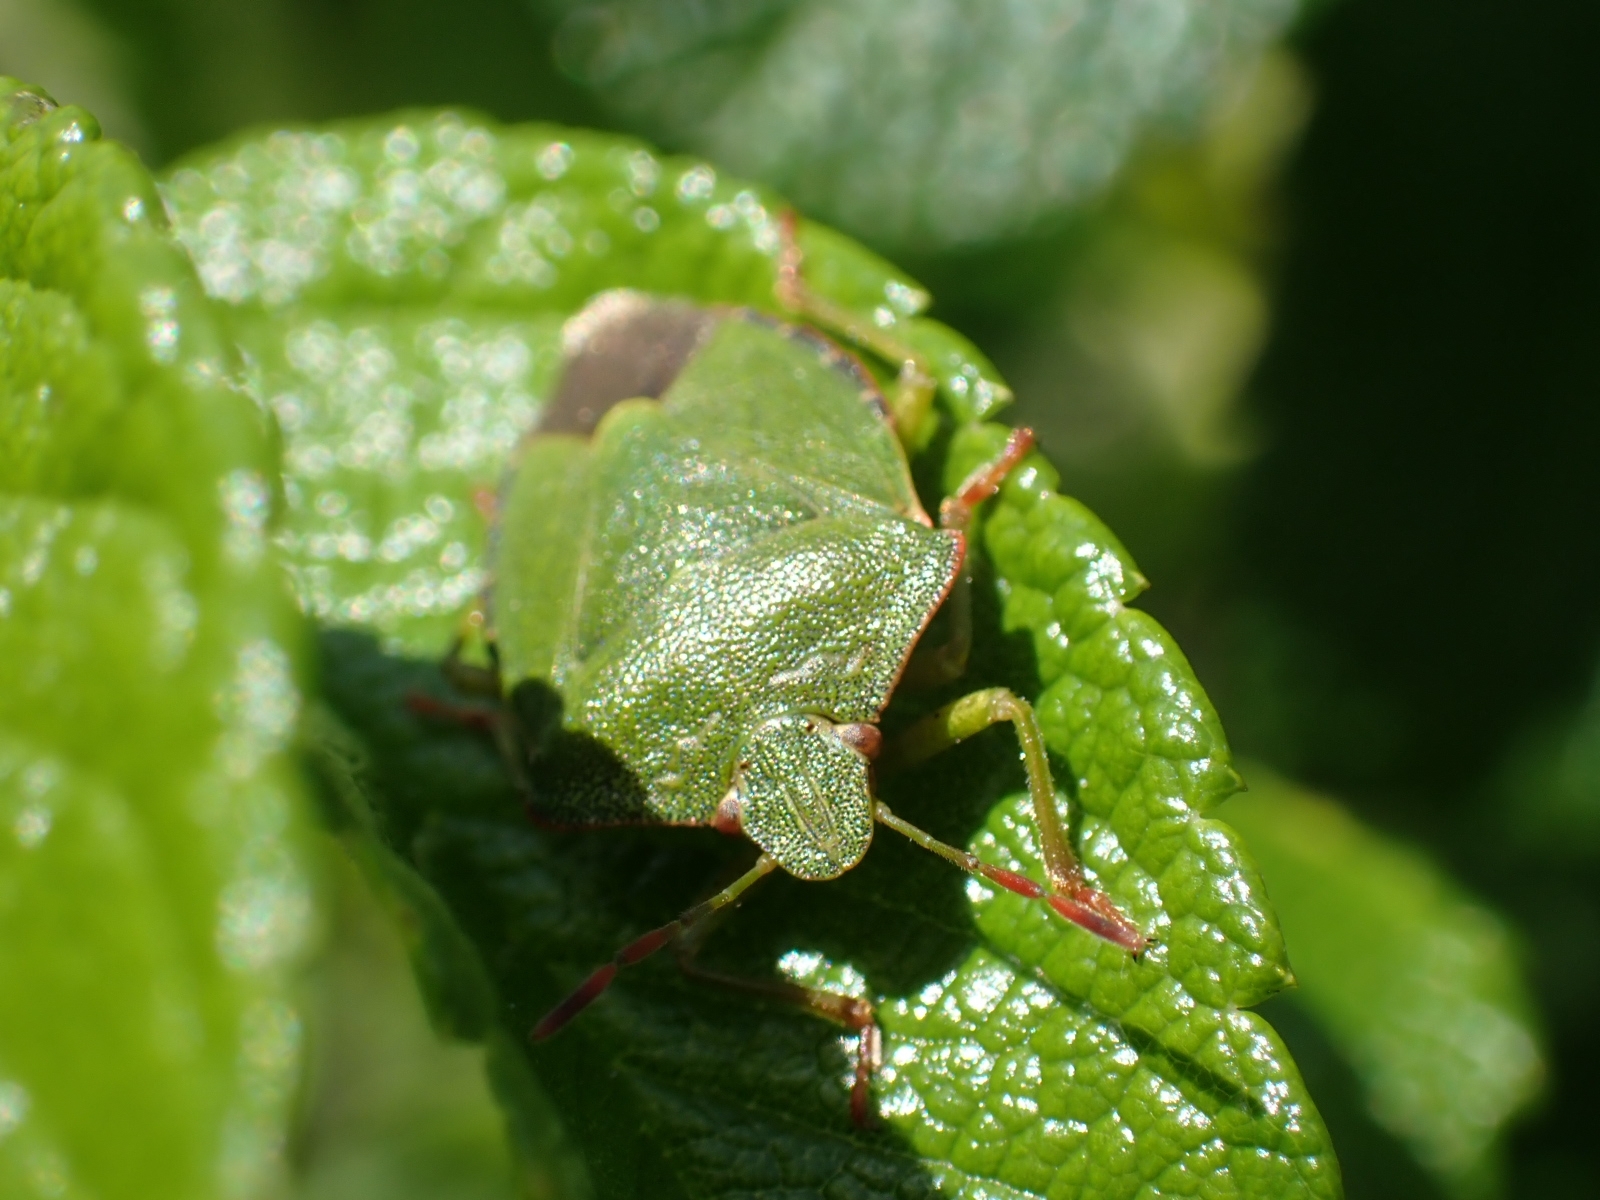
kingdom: Animalia
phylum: Arthropoda
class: Insecta
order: Hemiptera
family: Pentatomidae
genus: Palomena
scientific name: Palomena prasina
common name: Green shieldbug
